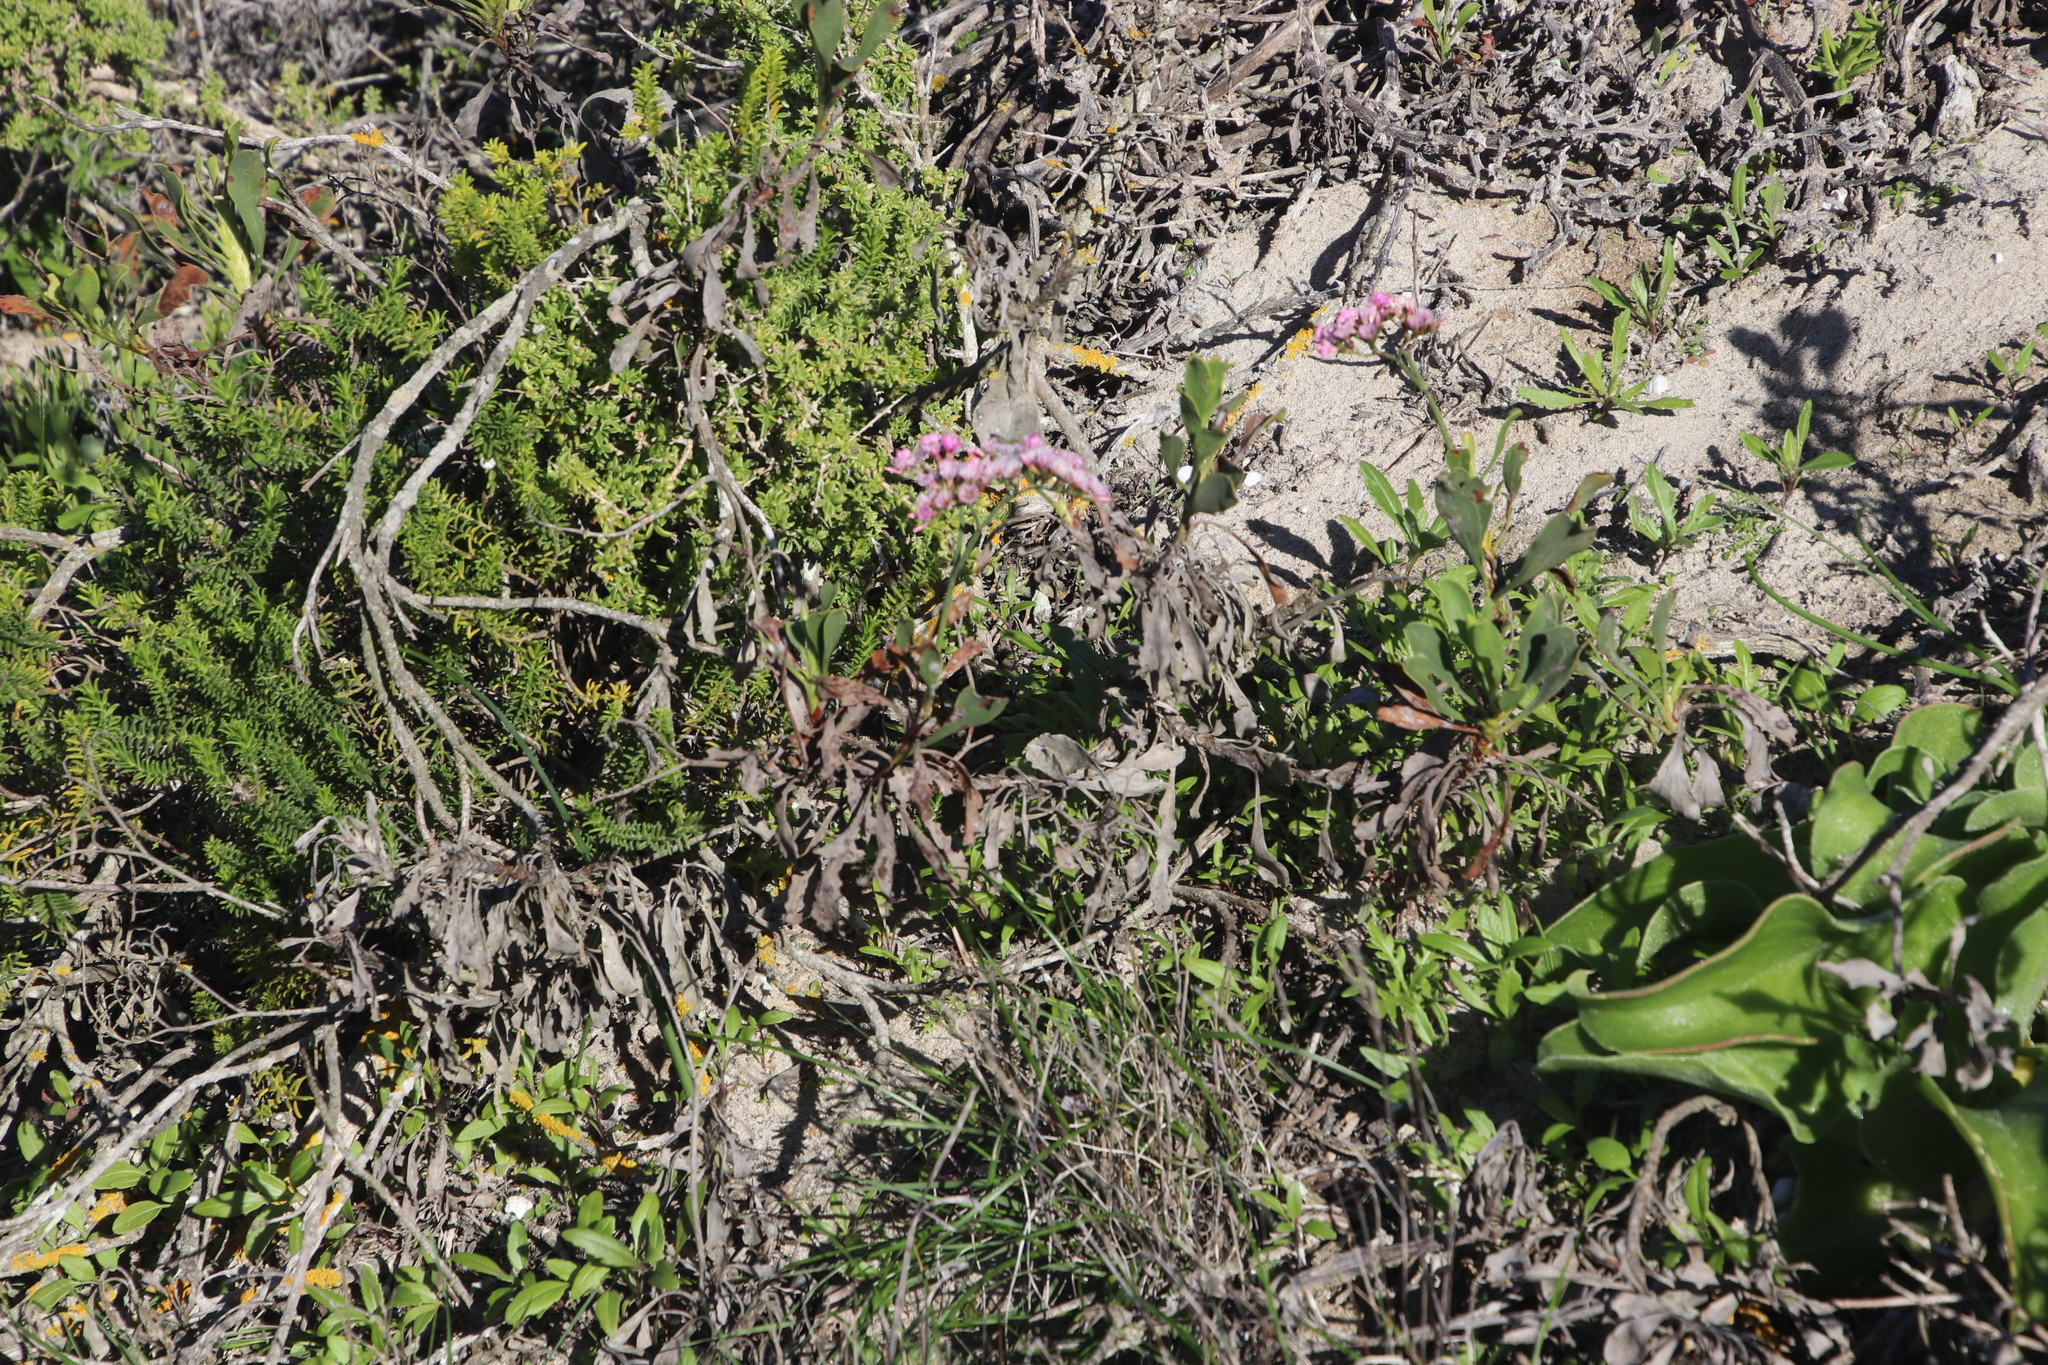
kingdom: Plantae
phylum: Tracheophyta
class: Magnoliopsida
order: Caryophyllales
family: Plumbaginaceae
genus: Limonium
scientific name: Limonium peregrinum
